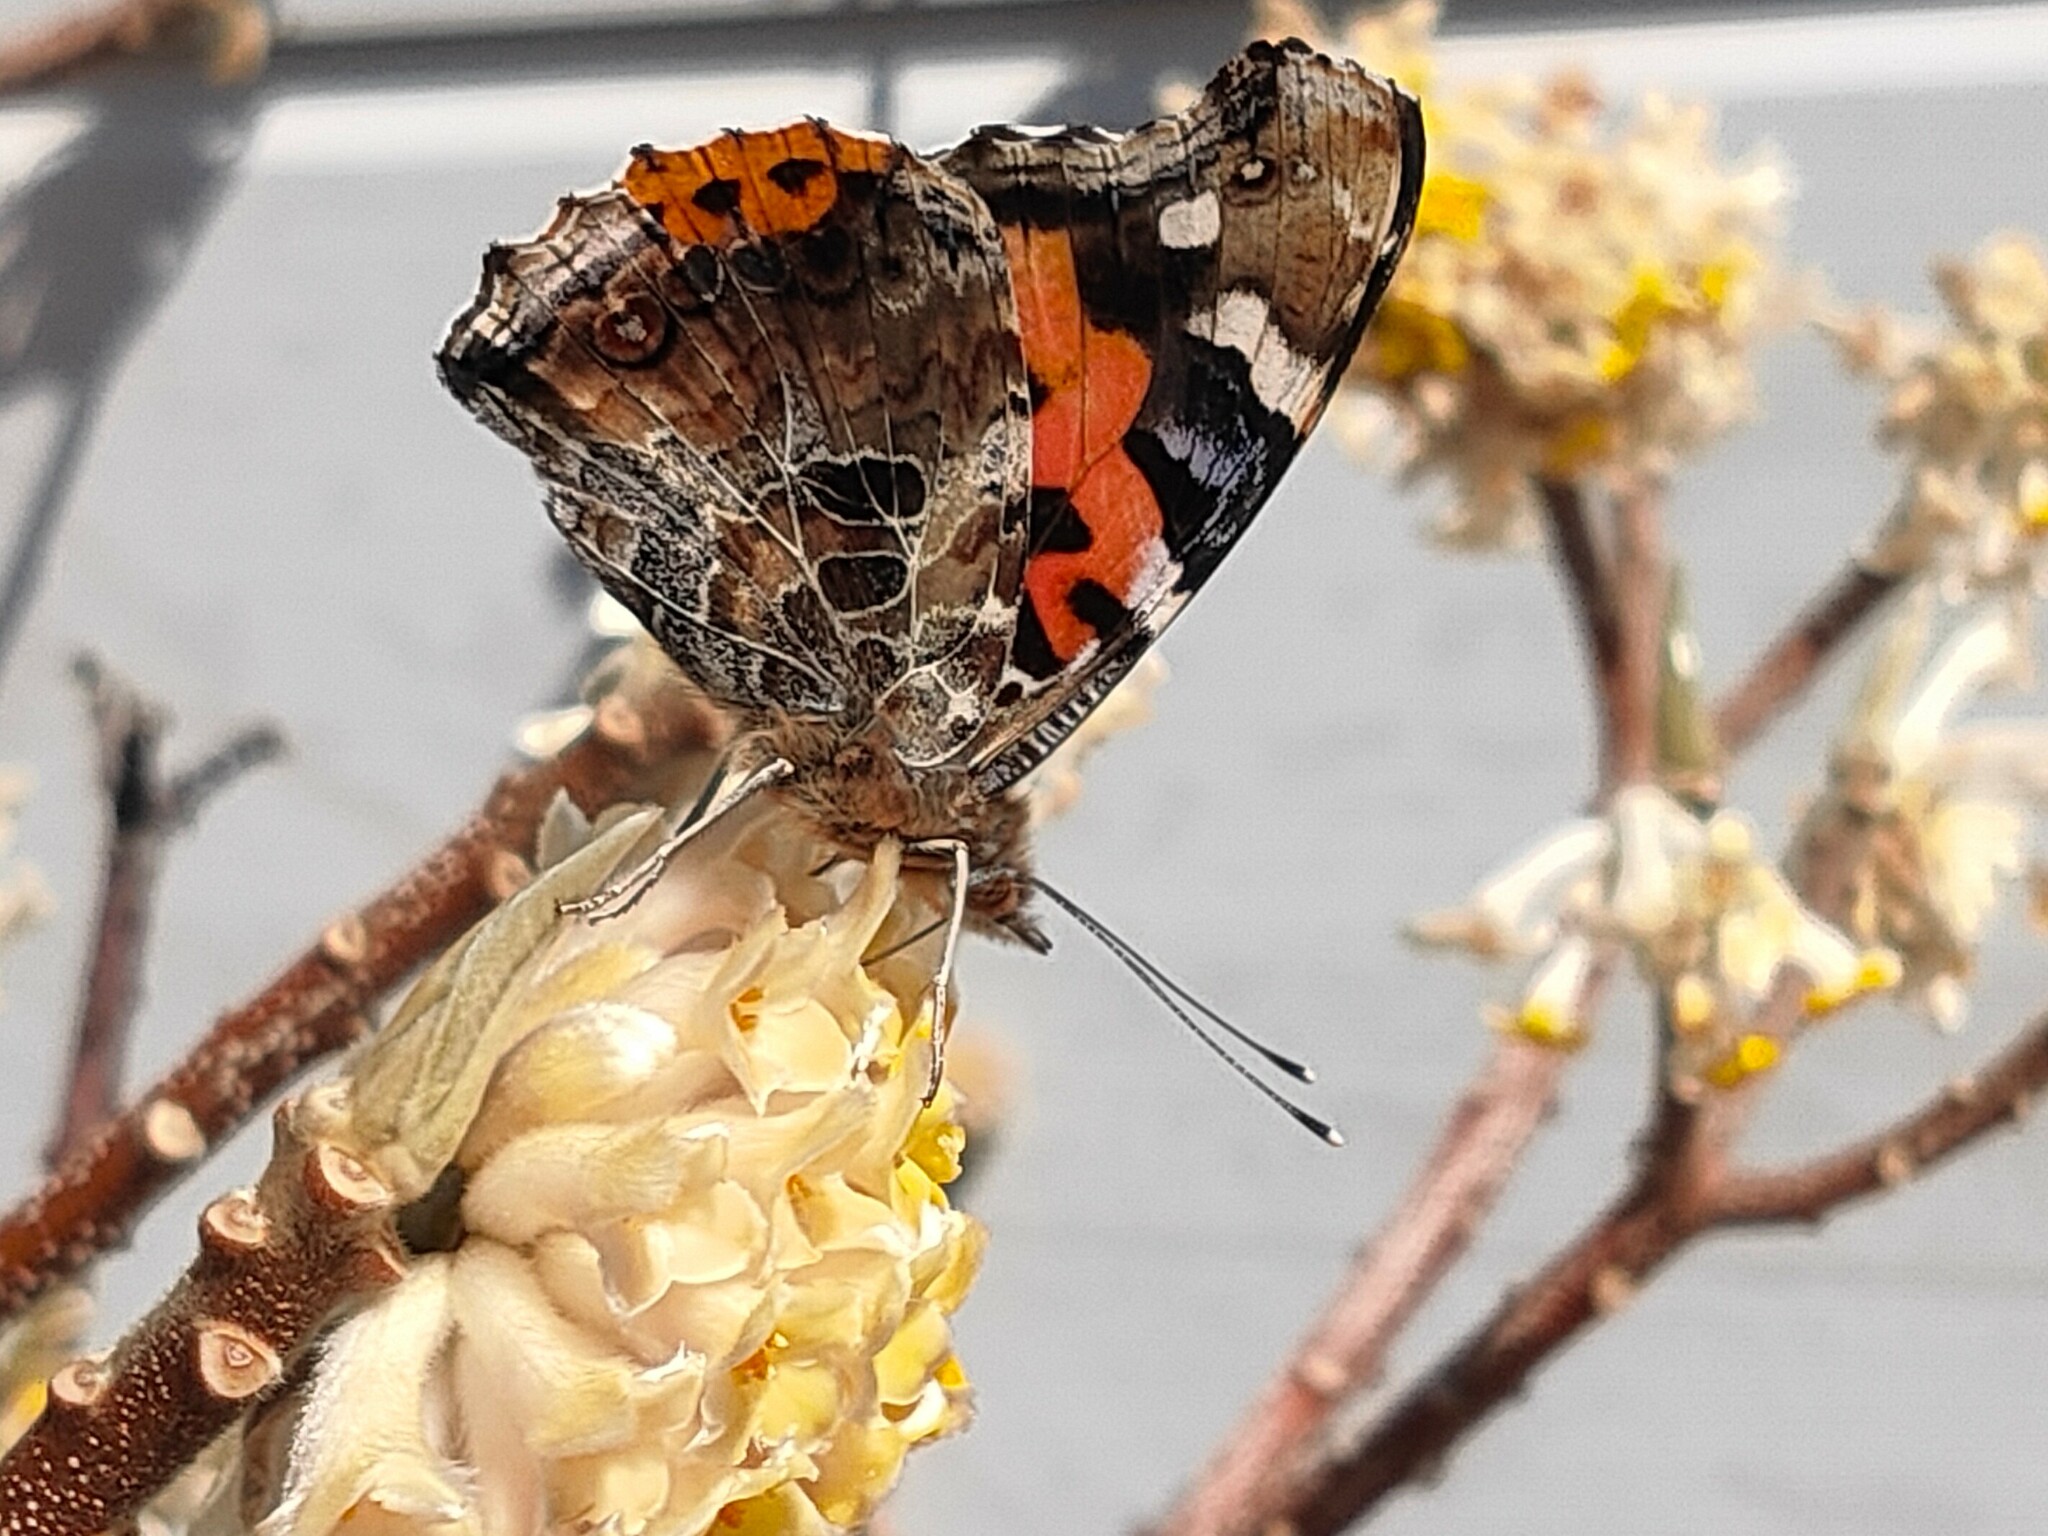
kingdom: Animalia
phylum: Arthropoda
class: Insecta
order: Lepidoptera
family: Nymphalidae
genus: Vanessa
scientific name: Vanessa indica
